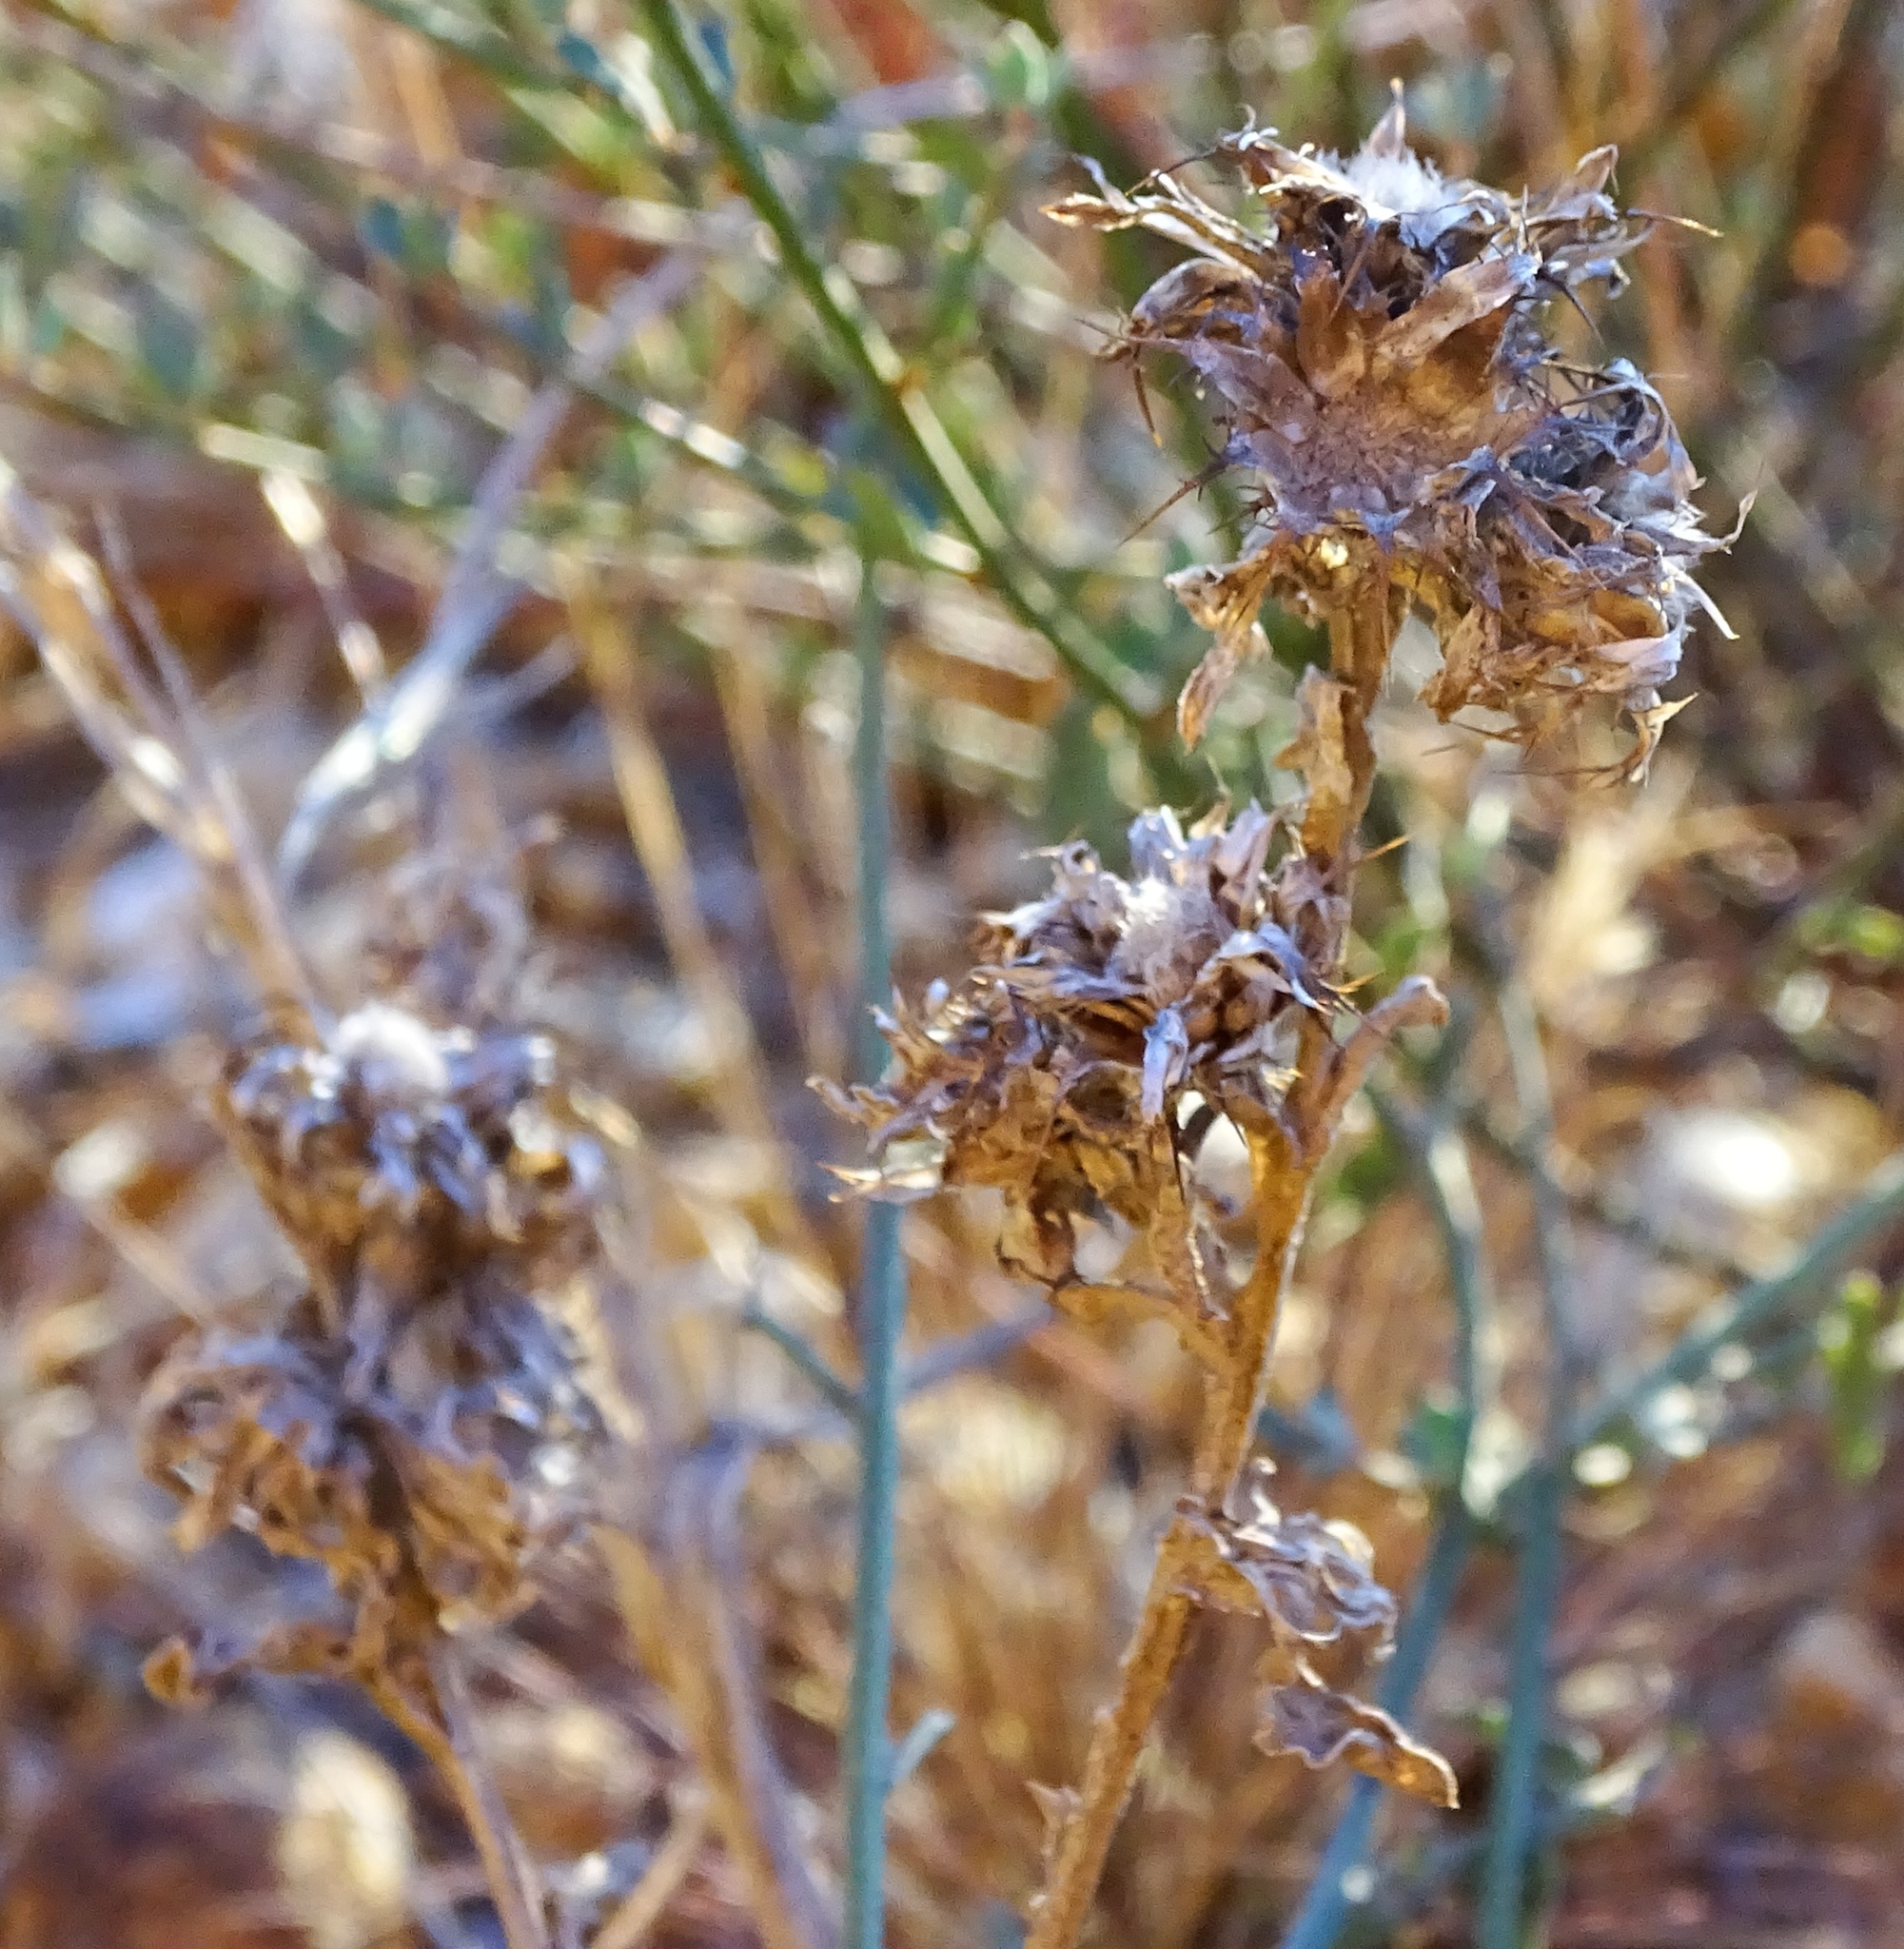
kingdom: Plantae
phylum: Tracheophyta
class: Magnoliopsida
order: Asterales
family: Asteraceae
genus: Centaurea
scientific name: Centaurea melitensis
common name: Maltese star-thistle
